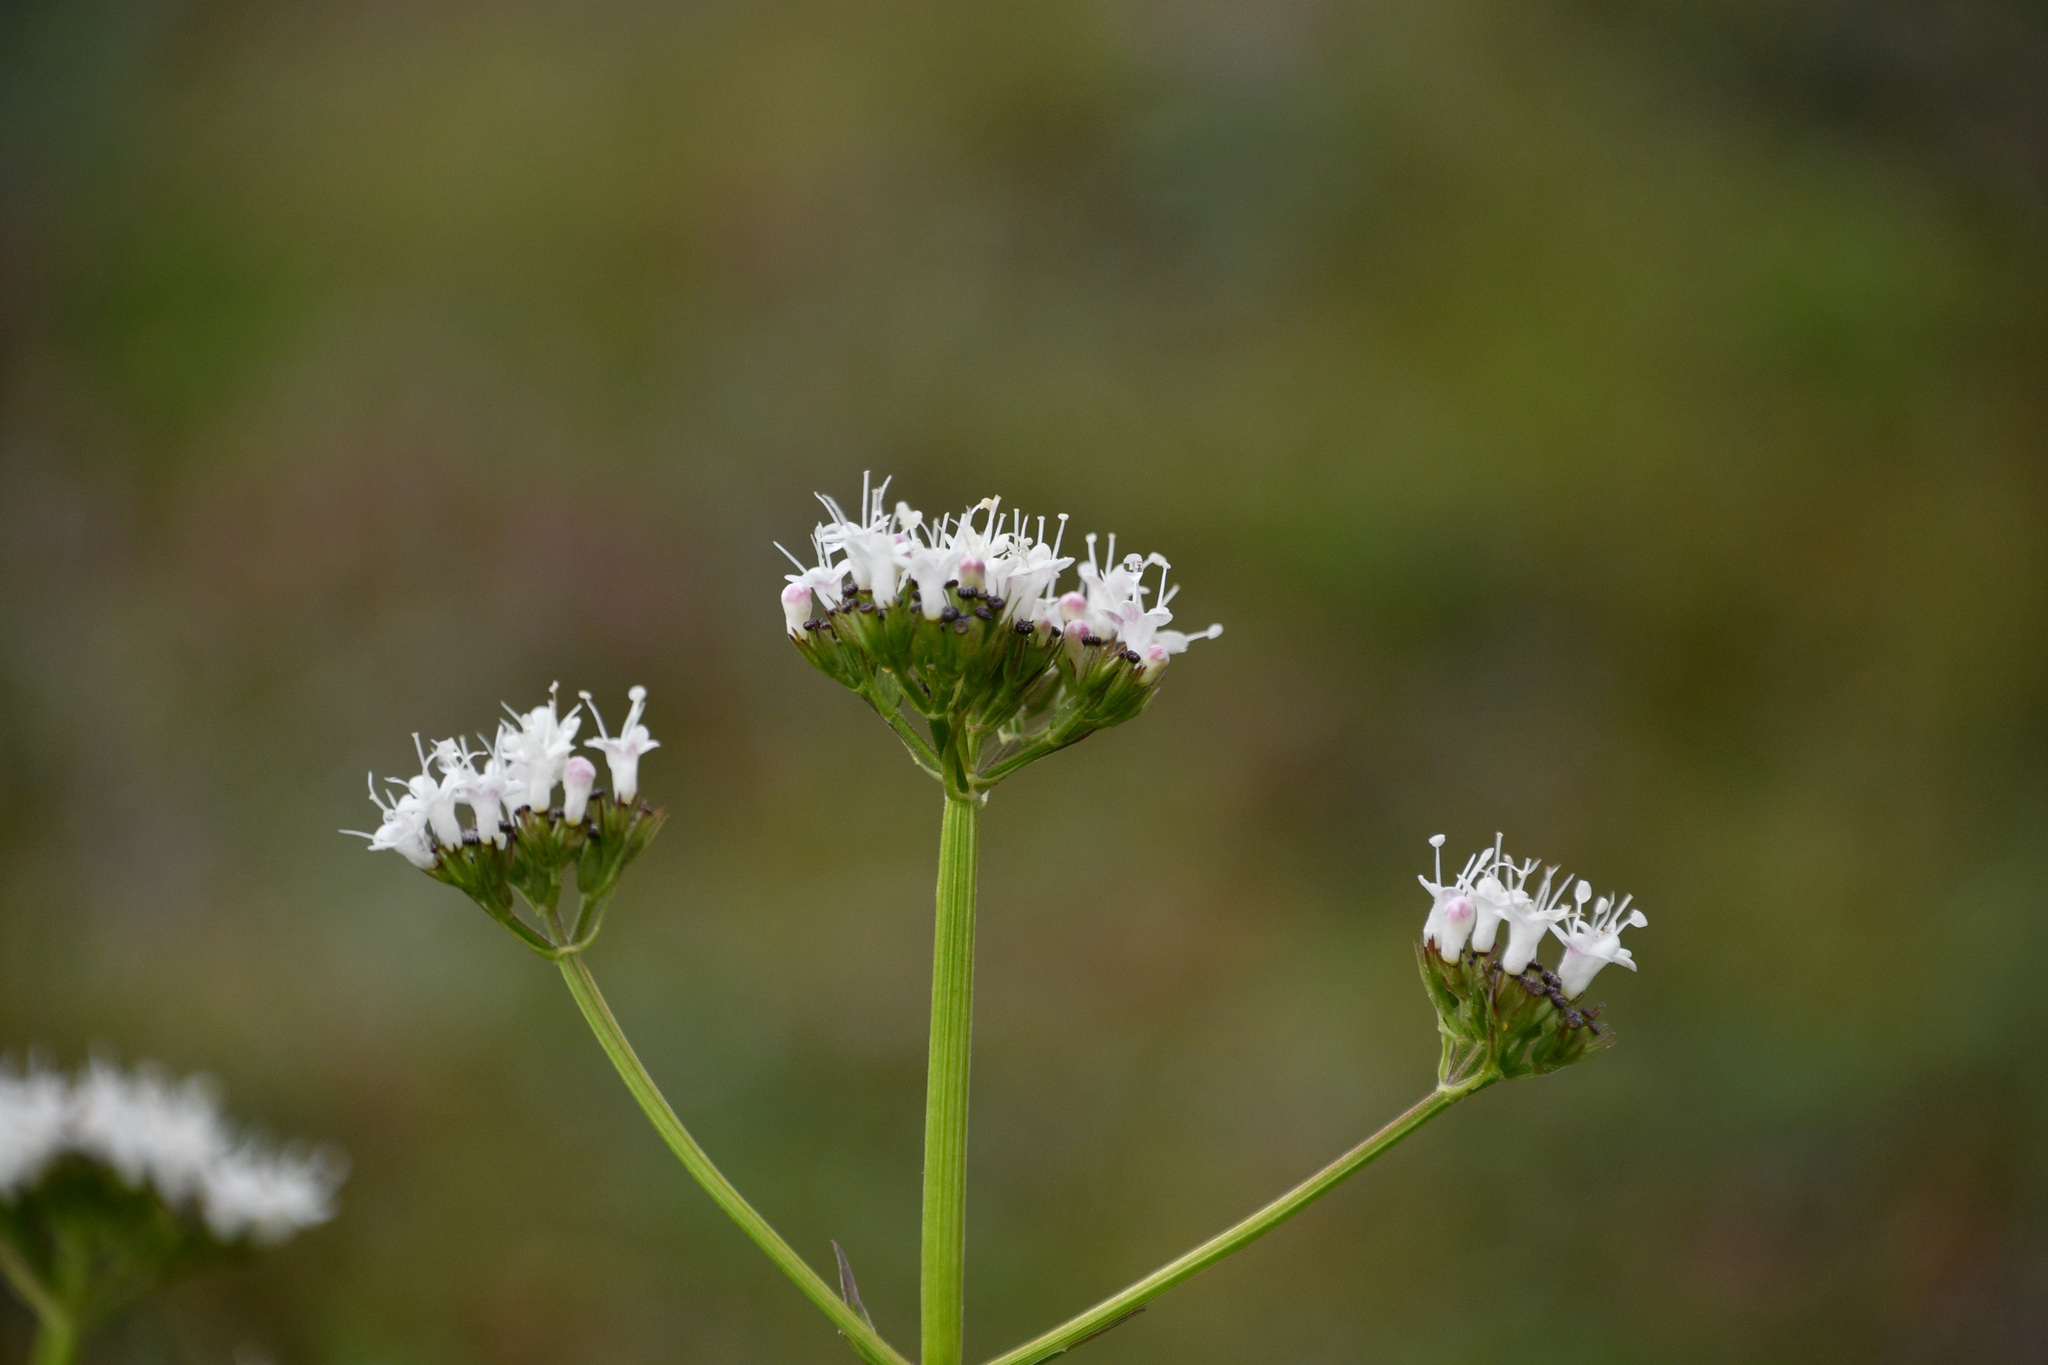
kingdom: Plantae
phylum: Tracheophyta
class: Magnoliopsida
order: Dipsacales
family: Caprifoliaceae
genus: Valeriana
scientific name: Valeriana sitchensis
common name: Pacific valerian
